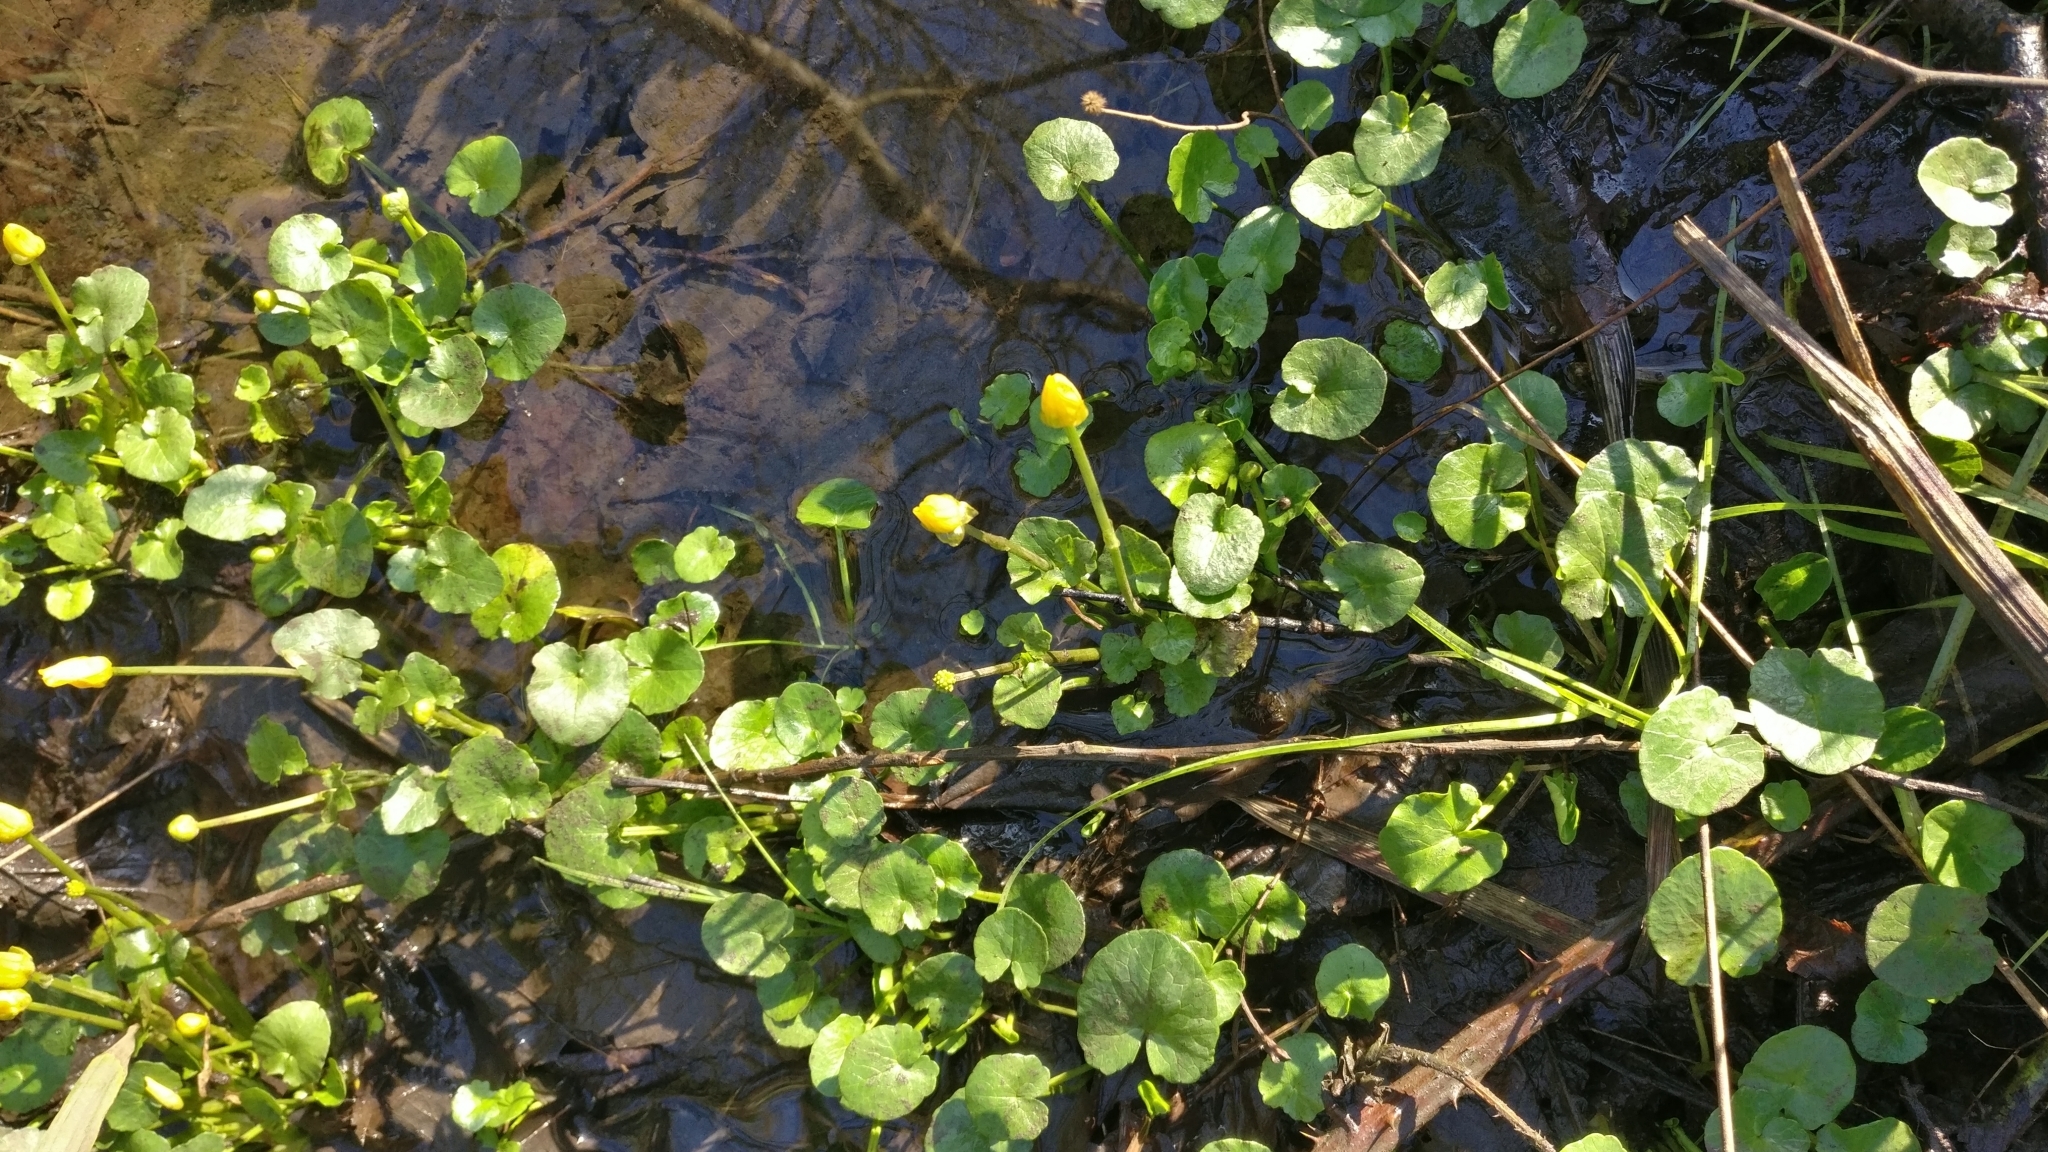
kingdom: Plantae
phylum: Tracheophyta
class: Magnoliopsida
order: Ranunculales
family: Ranunculaceae
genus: Ficaria
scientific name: Ficaria verna
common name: Lesser celandine
